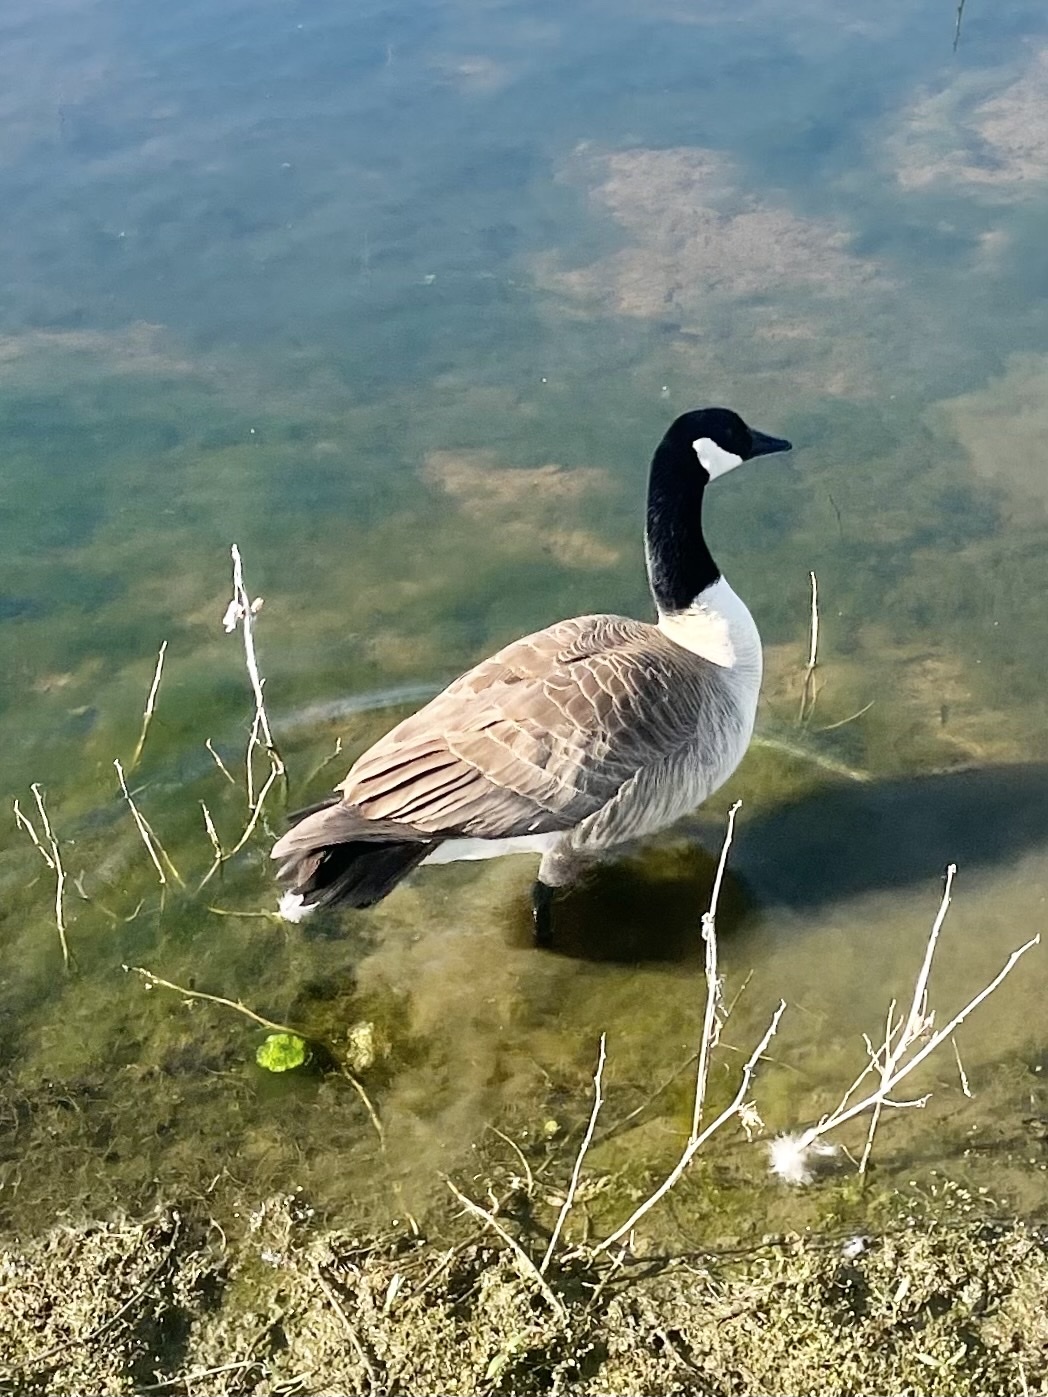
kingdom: Animalia
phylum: Chordata
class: Aves
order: Anseriformes
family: Anatidae
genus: Branta
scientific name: Branta hutchinsii
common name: Cackling goose
